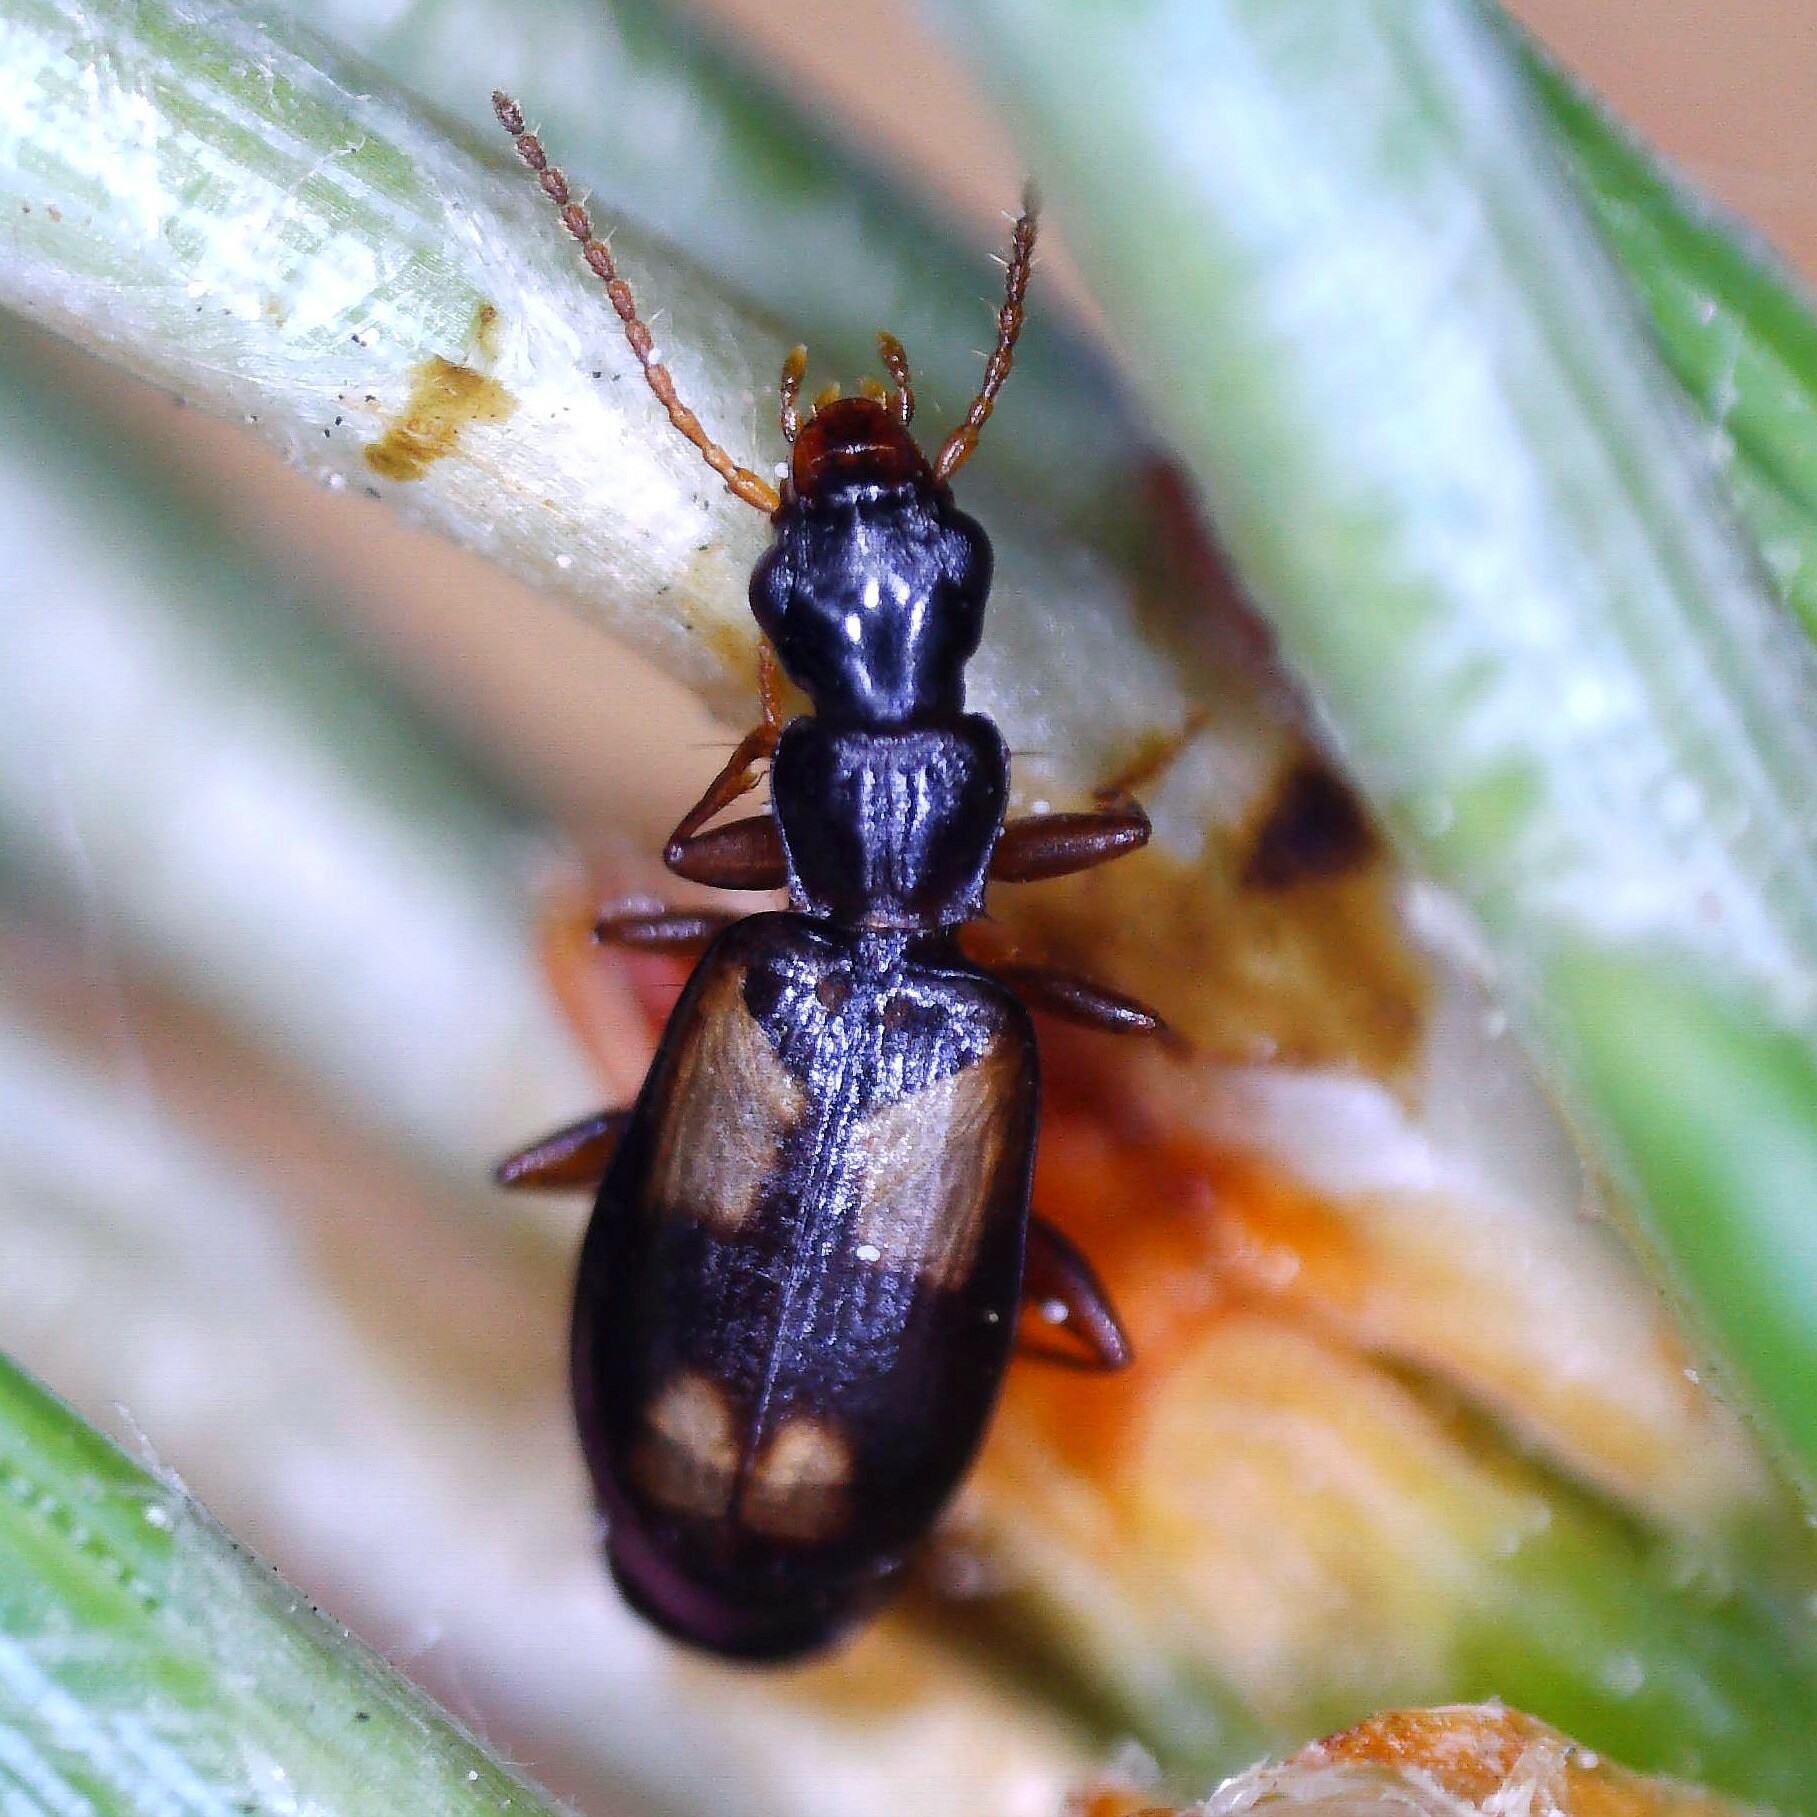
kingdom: Animalia
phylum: Arthropoda
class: Insecta
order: Coleoptera
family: Carabidae
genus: Calodromius
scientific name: Calodromius spilotus
